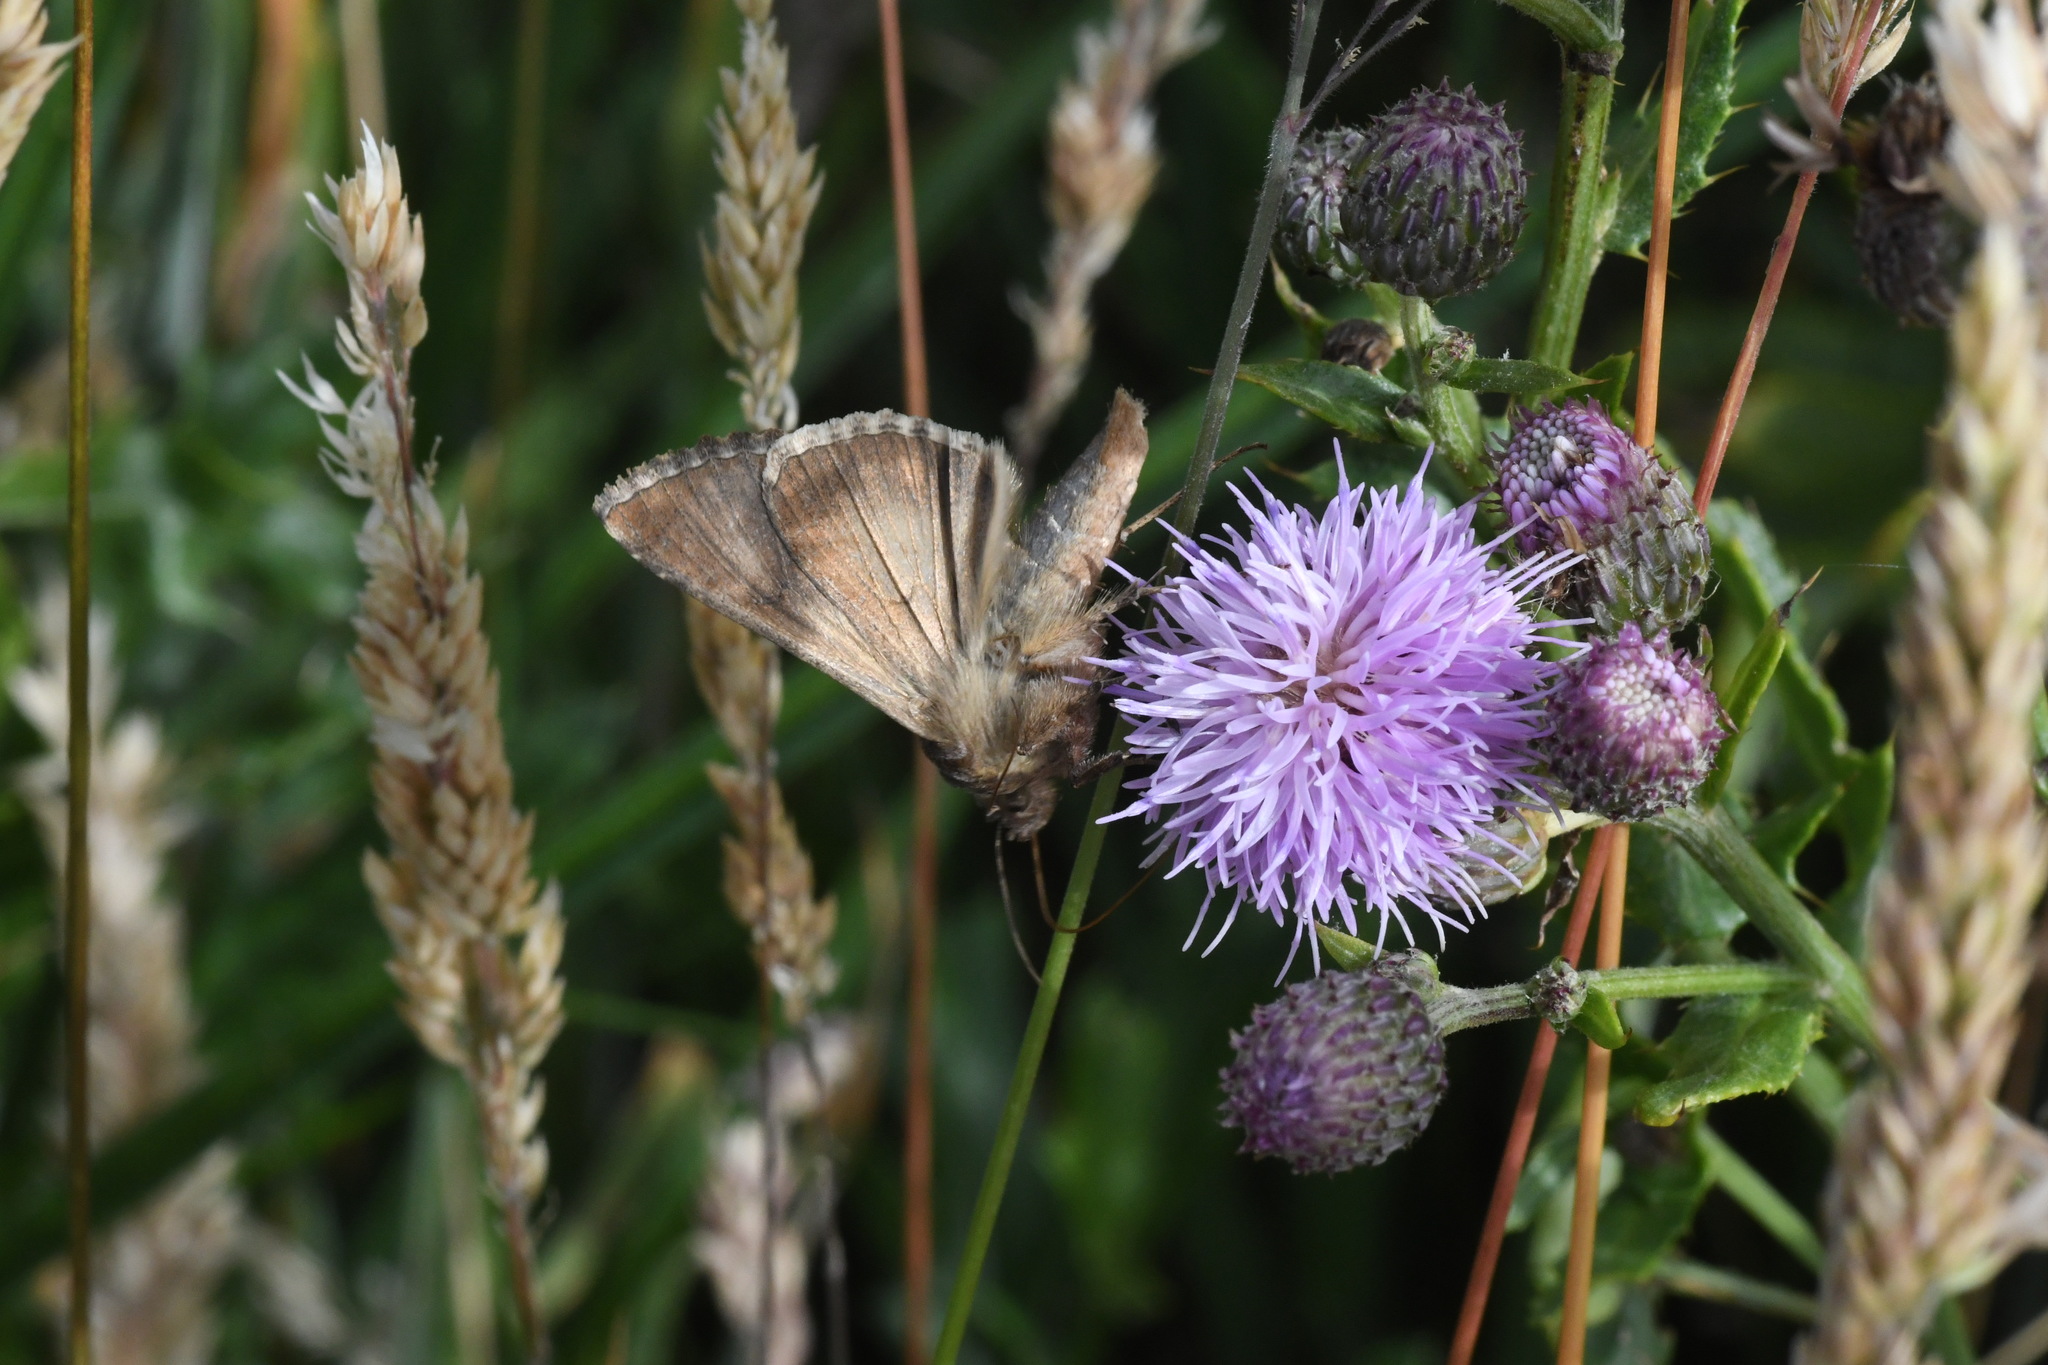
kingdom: Animalia
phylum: Arthropoda
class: Insecta
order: Lepidoptera
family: Noctuidae
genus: Autographa
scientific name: Autographa gamma
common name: Silver y
